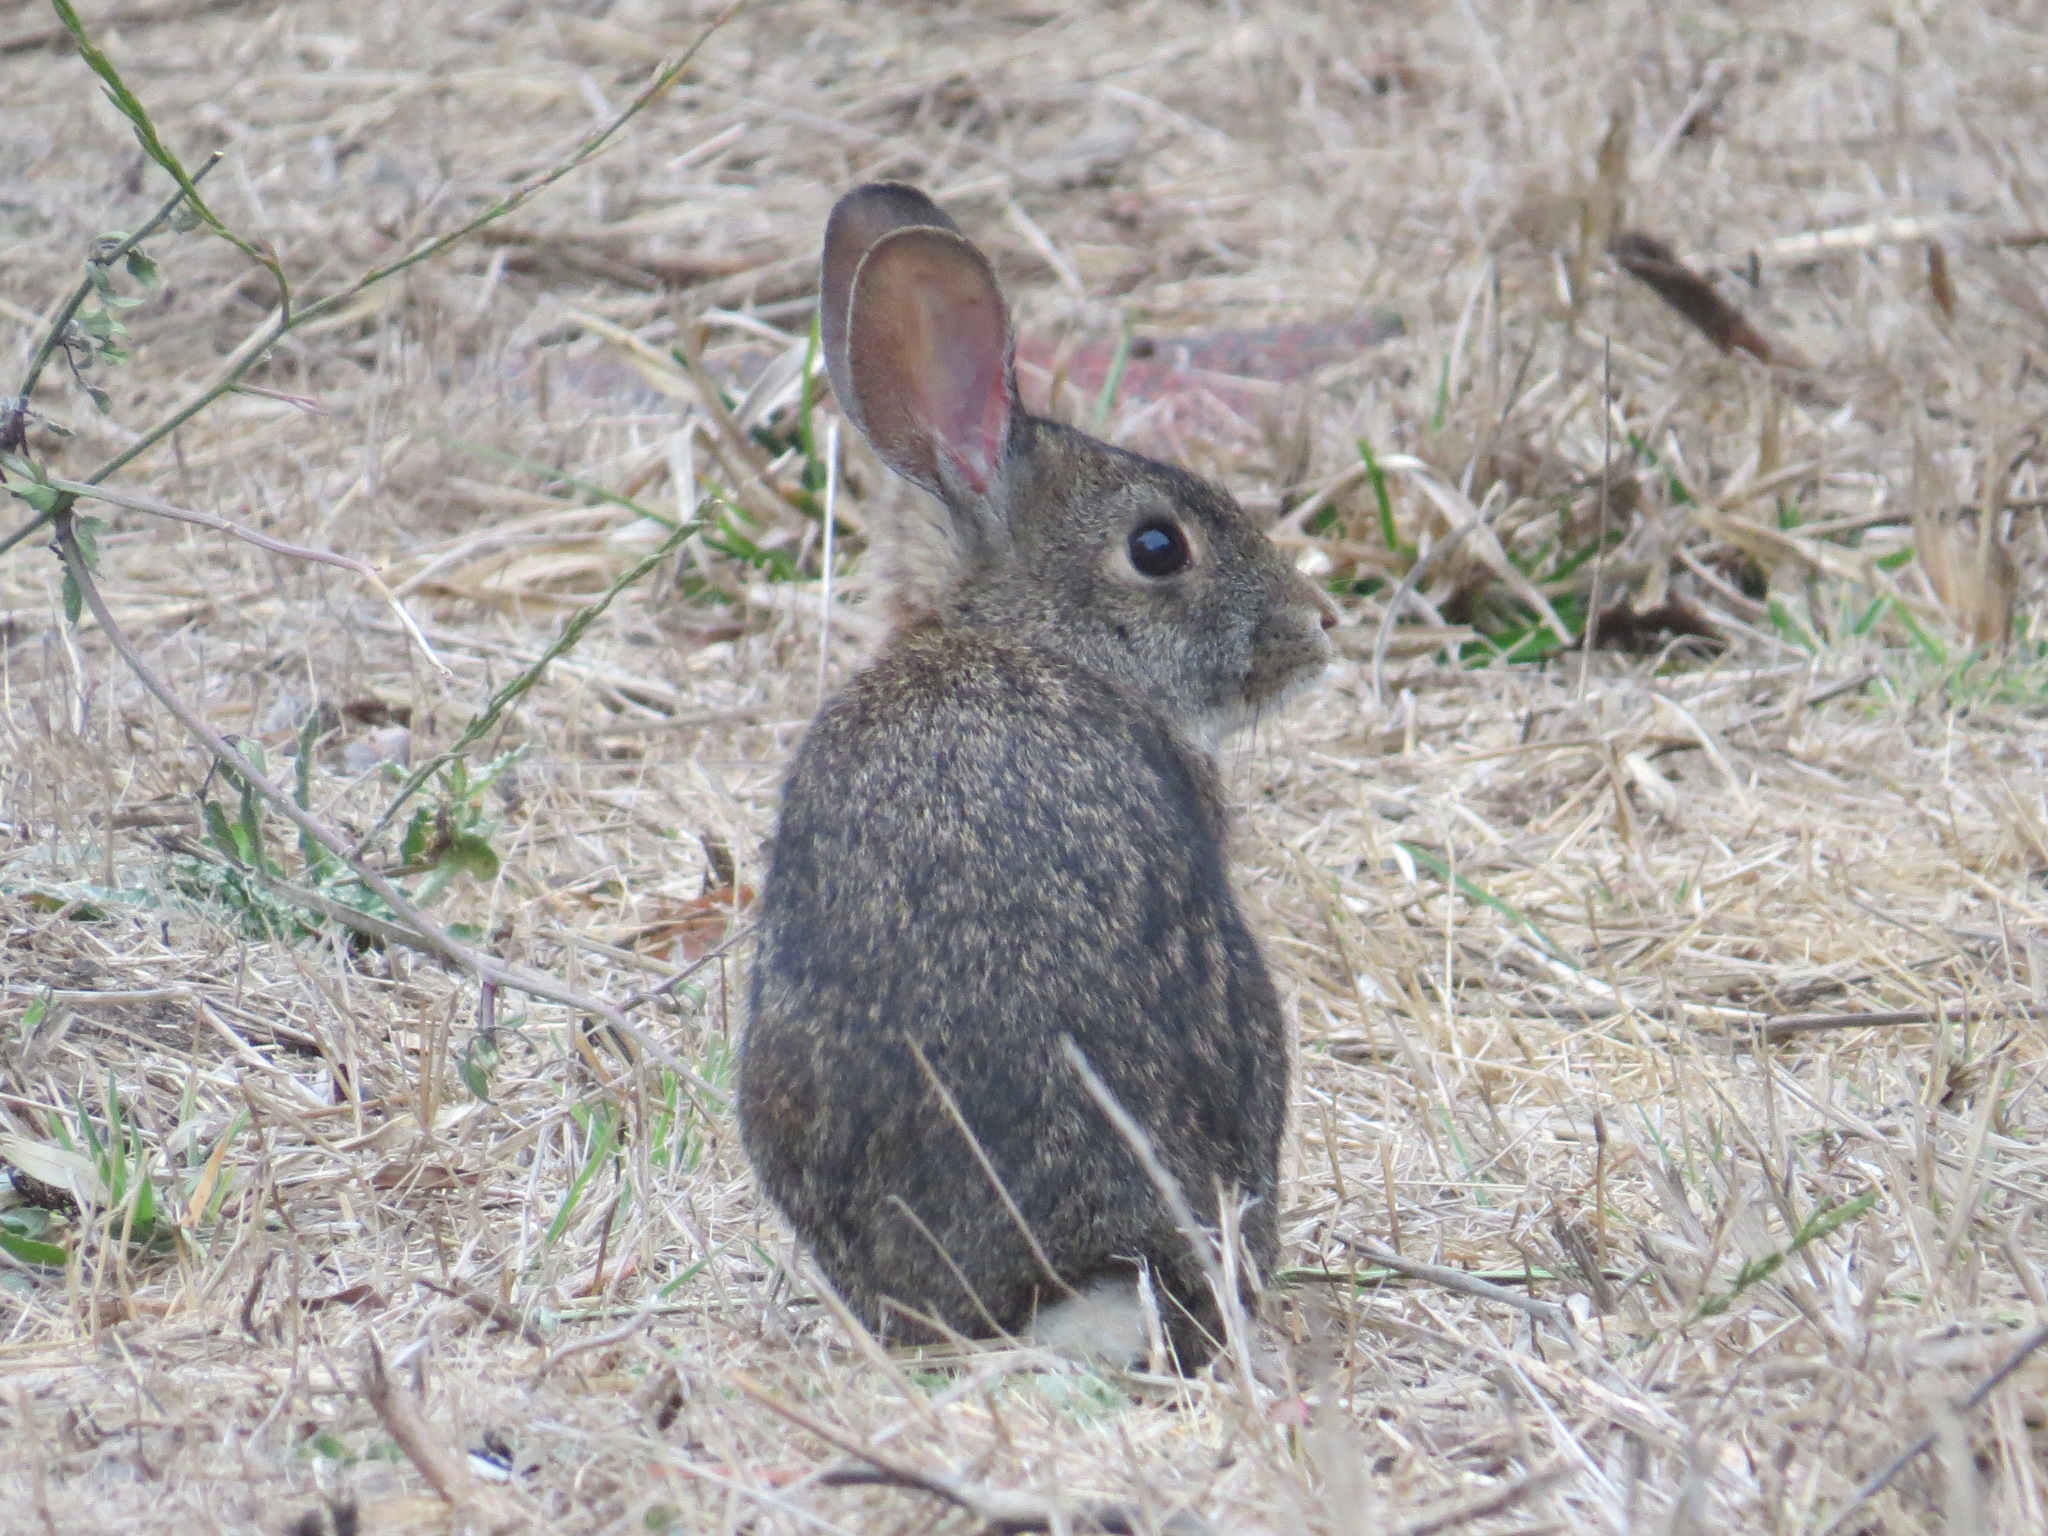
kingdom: Animalia
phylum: Chordata
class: Mammalia
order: Lagomorpha
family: Leporidae
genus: Sylvilagus
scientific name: Sylvilagus bachmani
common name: Brush rabbit
